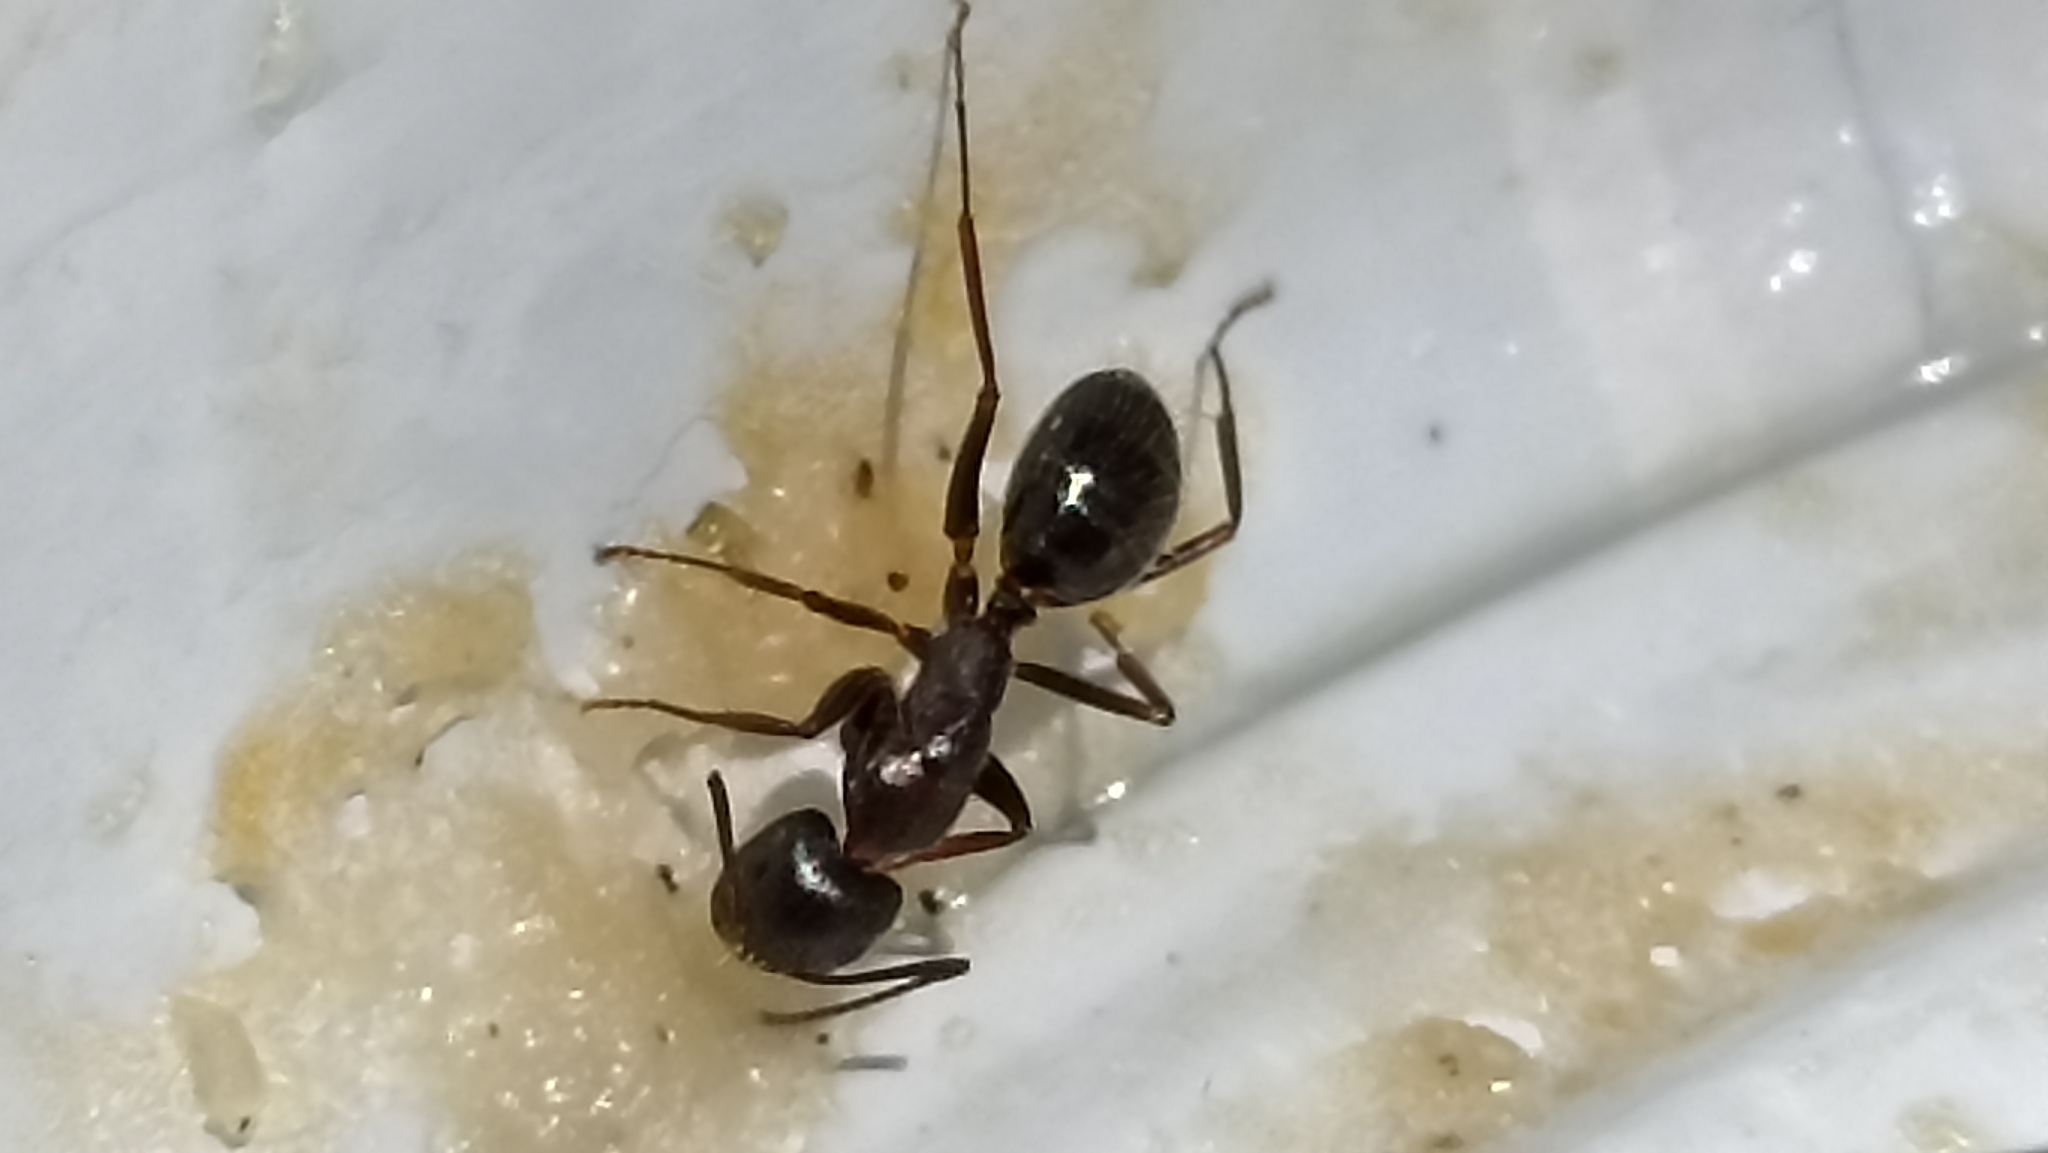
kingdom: Animalia
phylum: Arthropoda
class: Insecta
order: Hymenoptera
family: Formicidae
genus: Camponotus
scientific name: Camponotus aethiops
